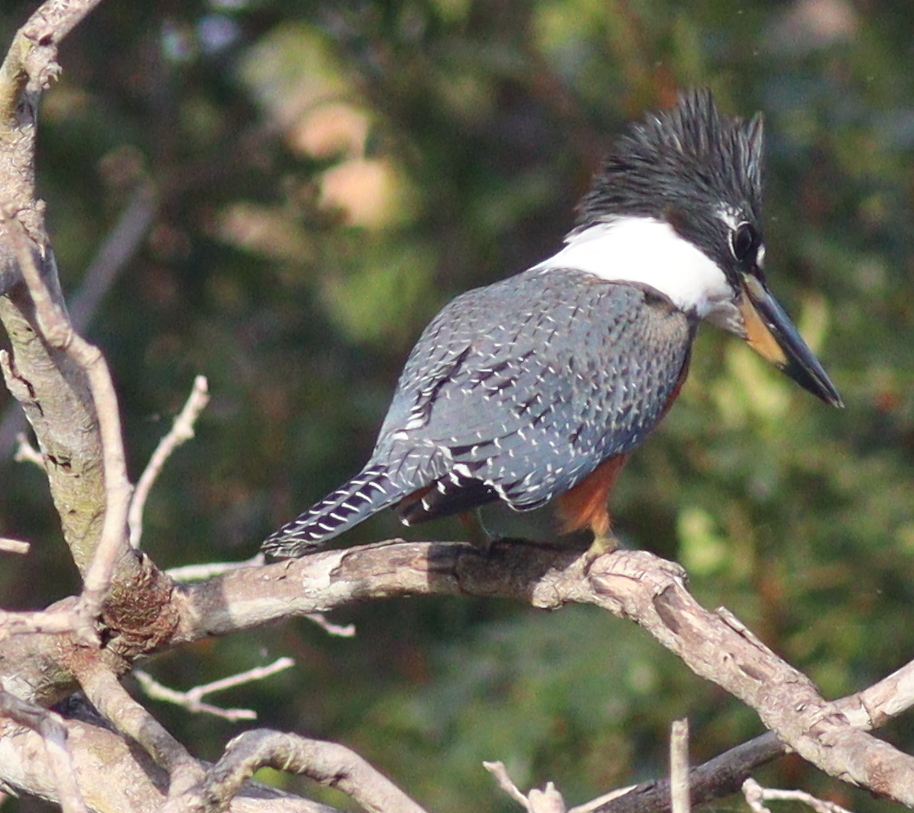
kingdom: Animalia
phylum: Chordata
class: Aves
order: Coraciiformes
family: Alcedinidae
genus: Megaceryle
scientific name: Megaceryle torquata
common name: Ringed kingfisher
